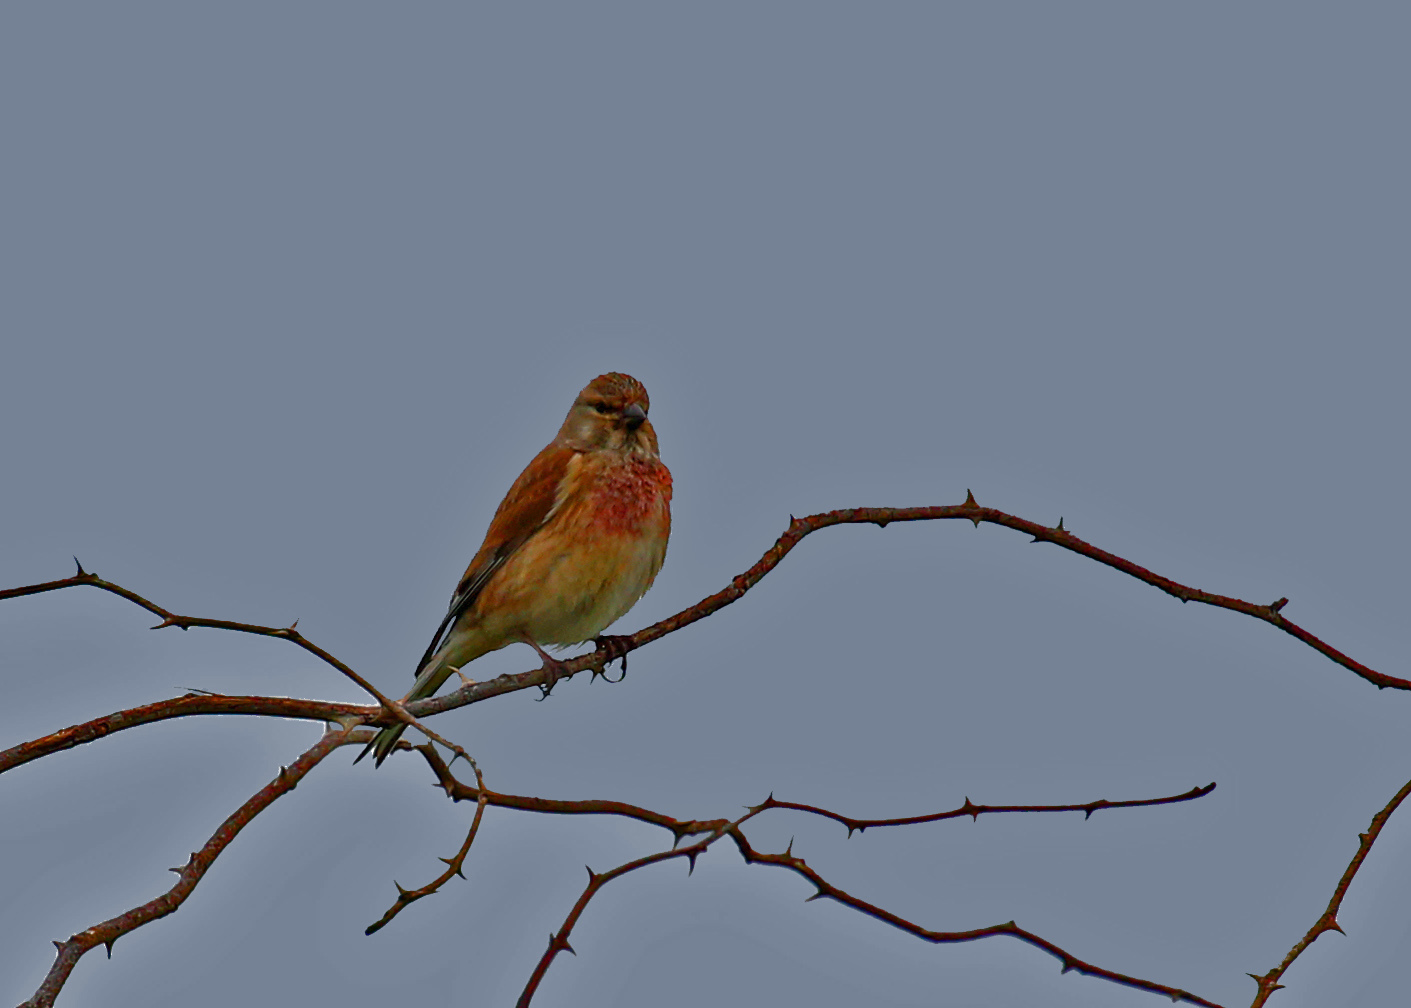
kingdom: Animalia
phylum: Chordata
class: Aves
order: Passeriformes
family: Fringillidae
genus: Linaria
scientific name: Linaria cannabina
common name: Common linnet
